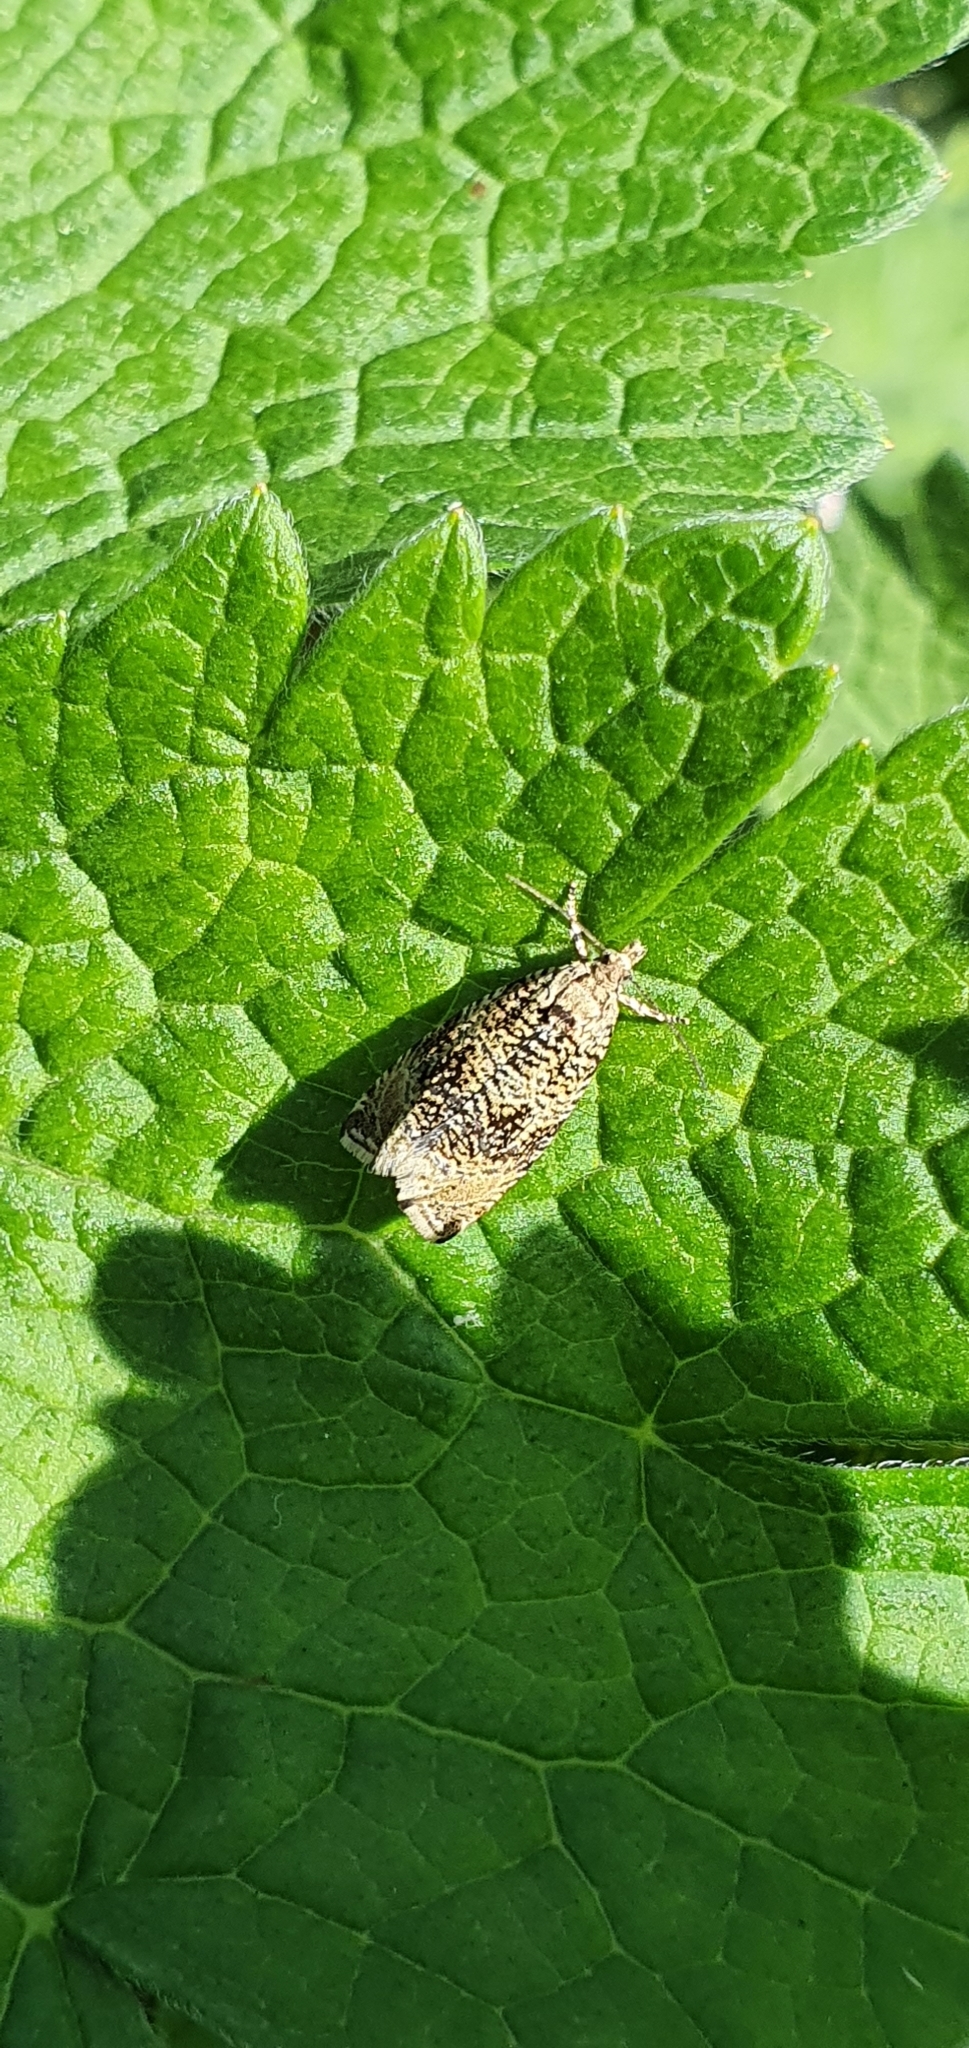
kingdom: Animalia
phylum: Arthropoda
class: Insecta
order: Lepidoptera
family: Tortricidae
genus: Syricoris
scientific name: Syricoris lacunana
